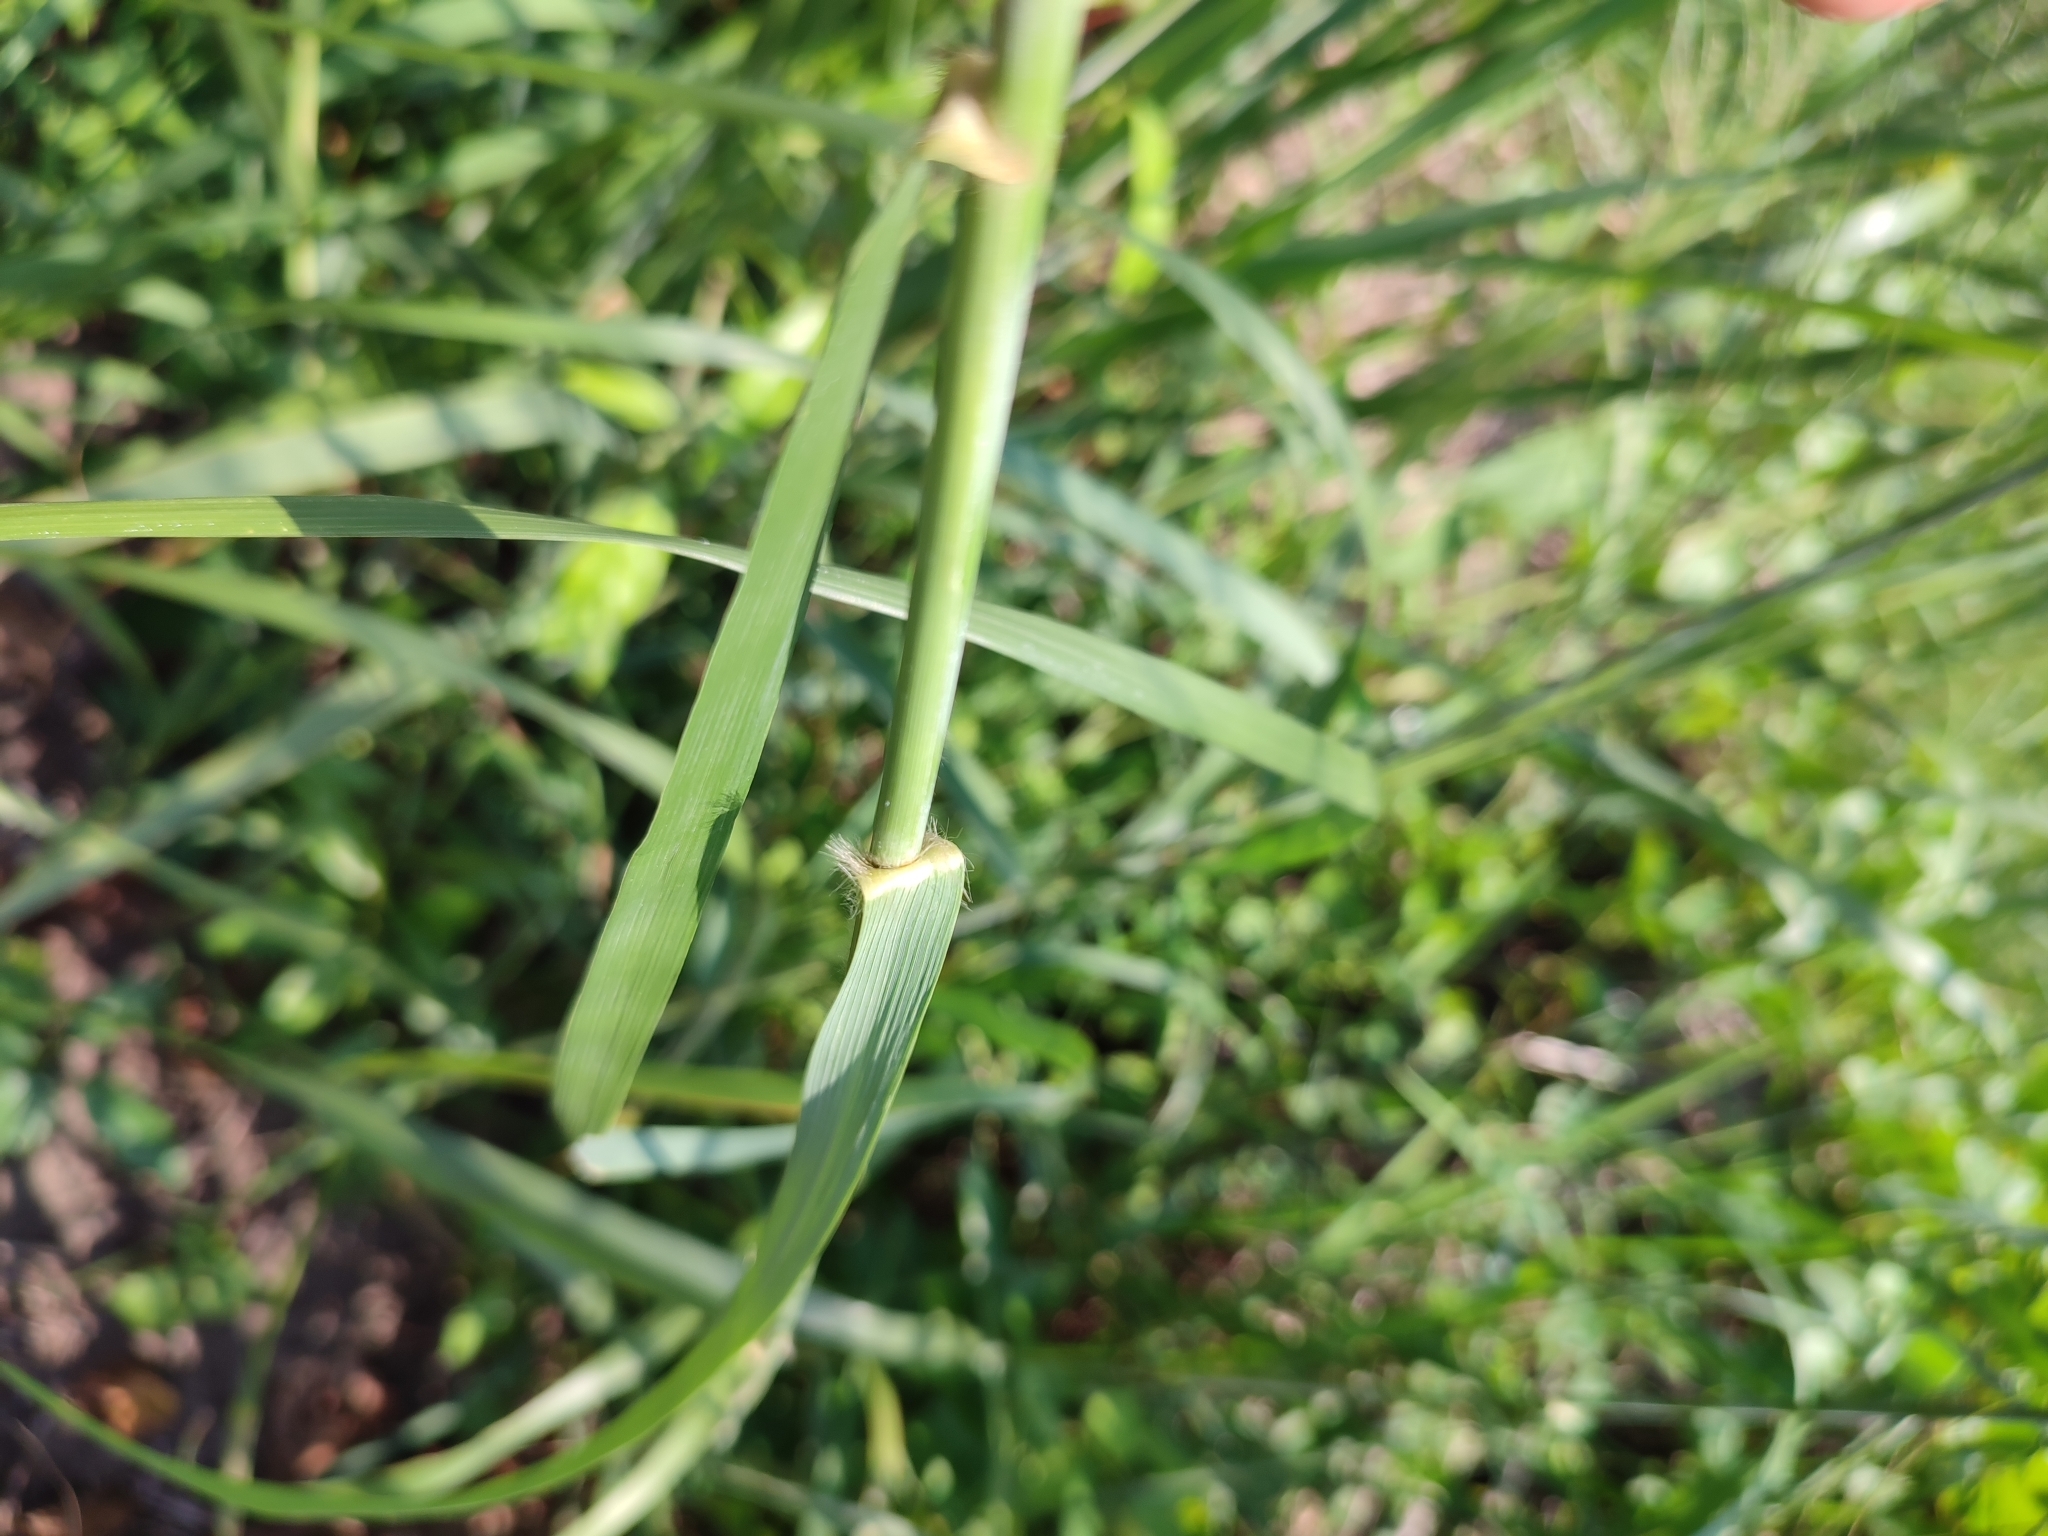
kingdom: Plantae
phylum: Tracheophyta
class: Liliopsida
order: Poales
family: Poaceae
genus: Neyraudia
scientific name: Neyraudia reynaudiana
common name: Silkreed
